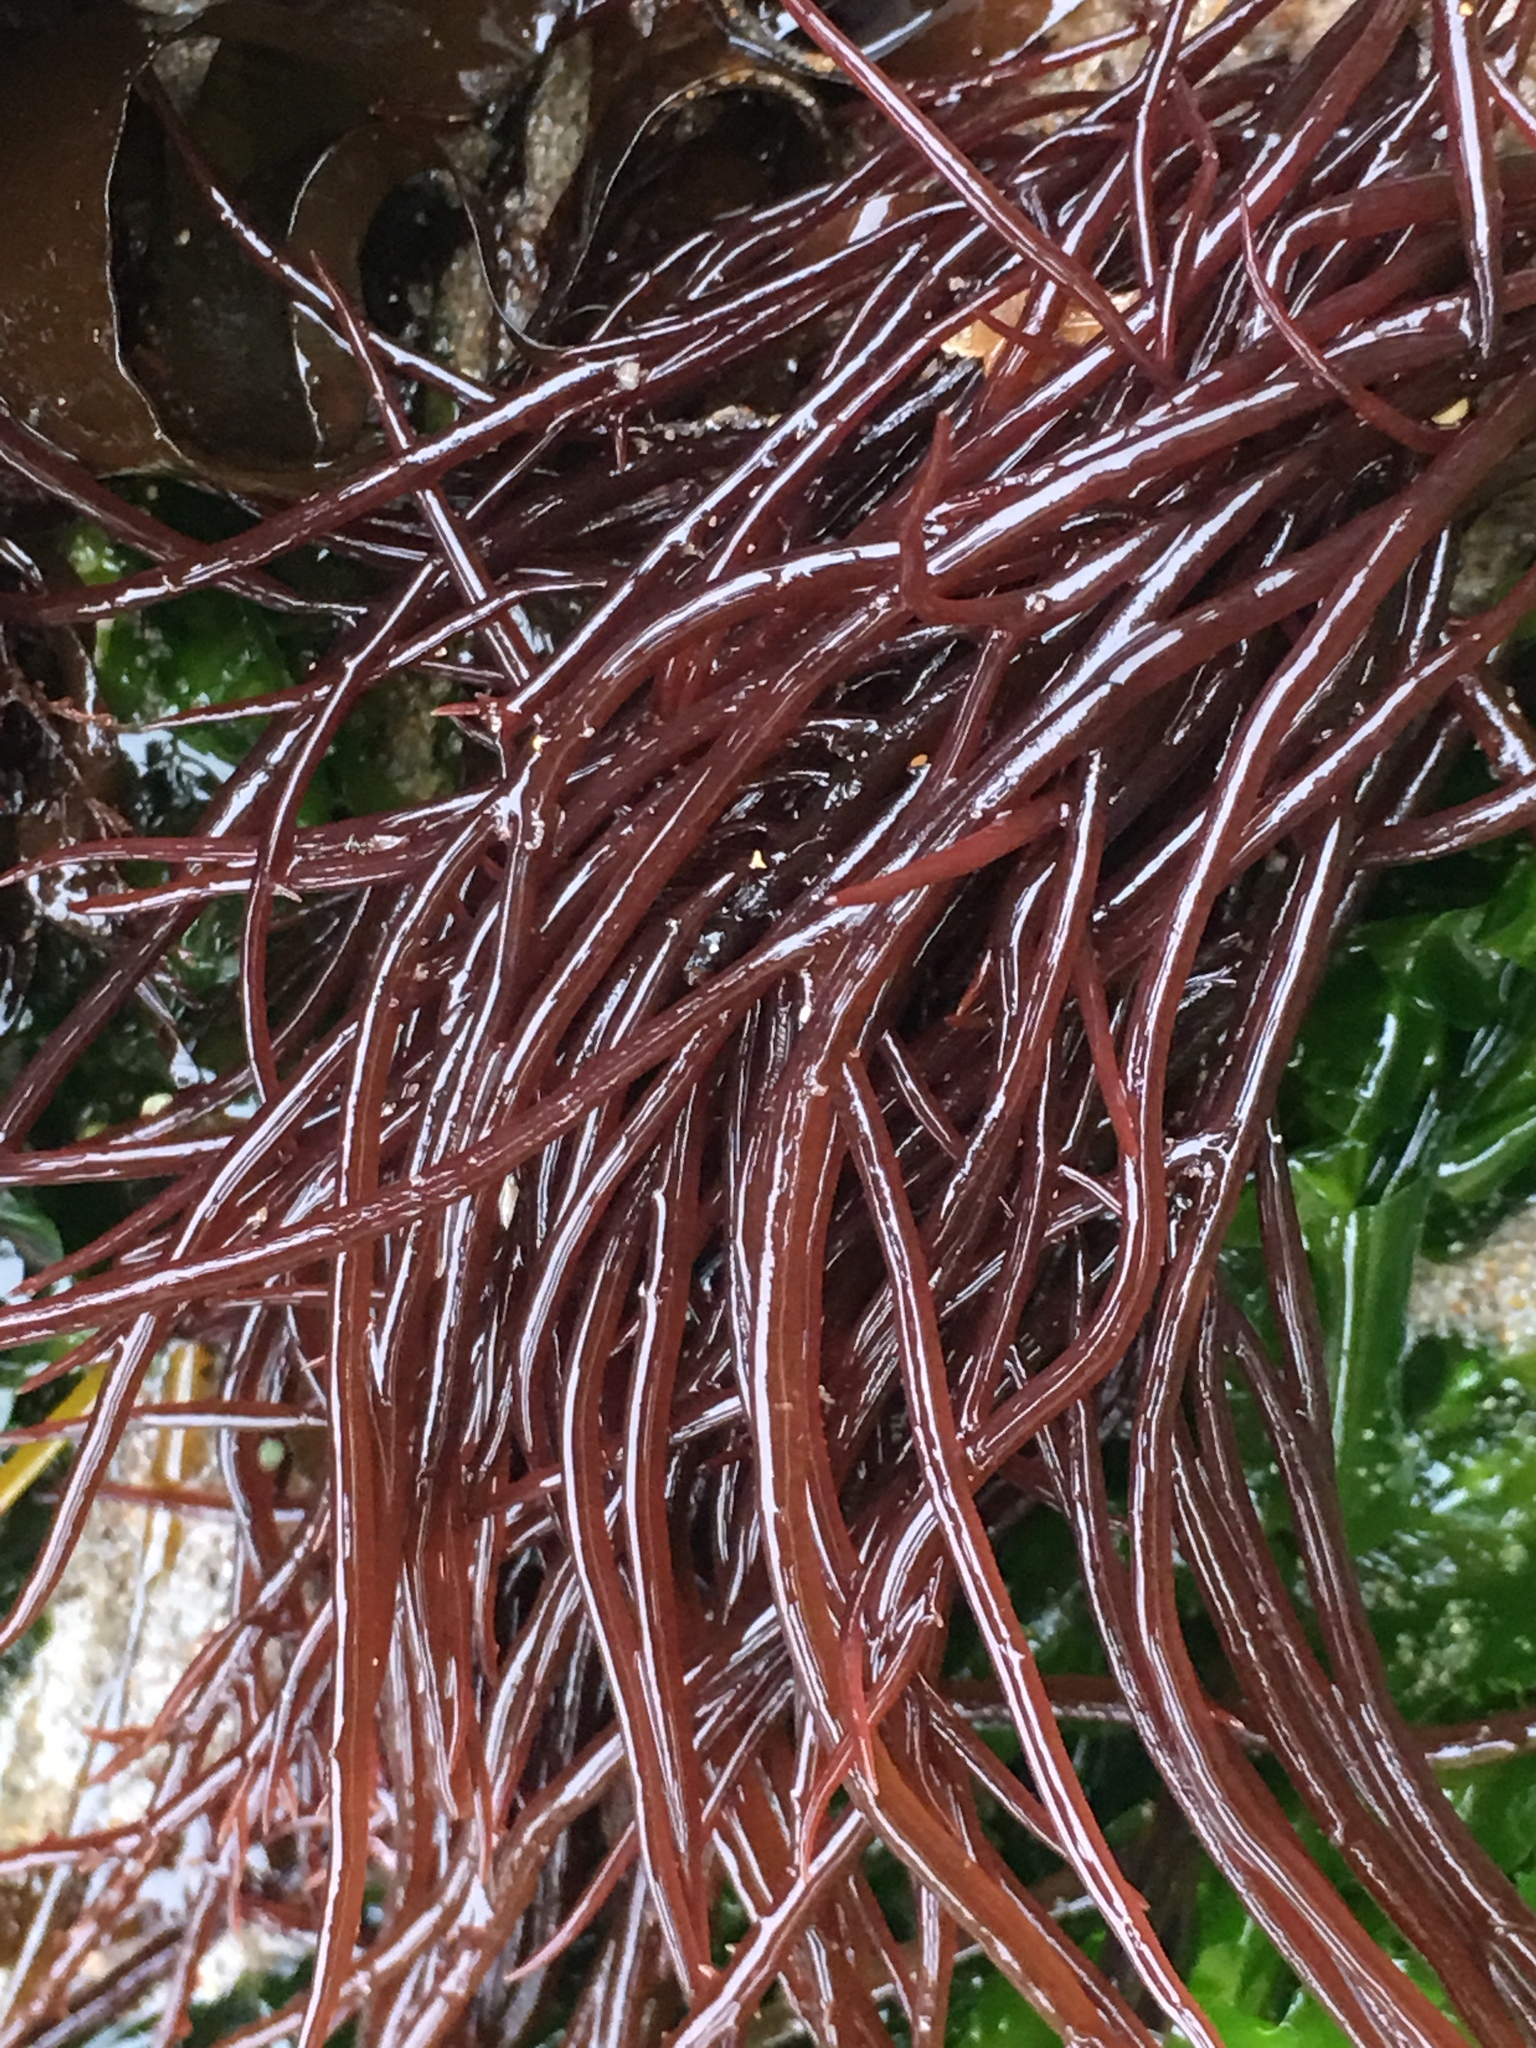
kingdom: Plantae
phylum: Rhodophyta
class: Florideophyceae
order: Gigartinales
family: Solieriaceae
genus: Sarcodiotheca
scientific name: Sarcodiotheca gaudichaudii
